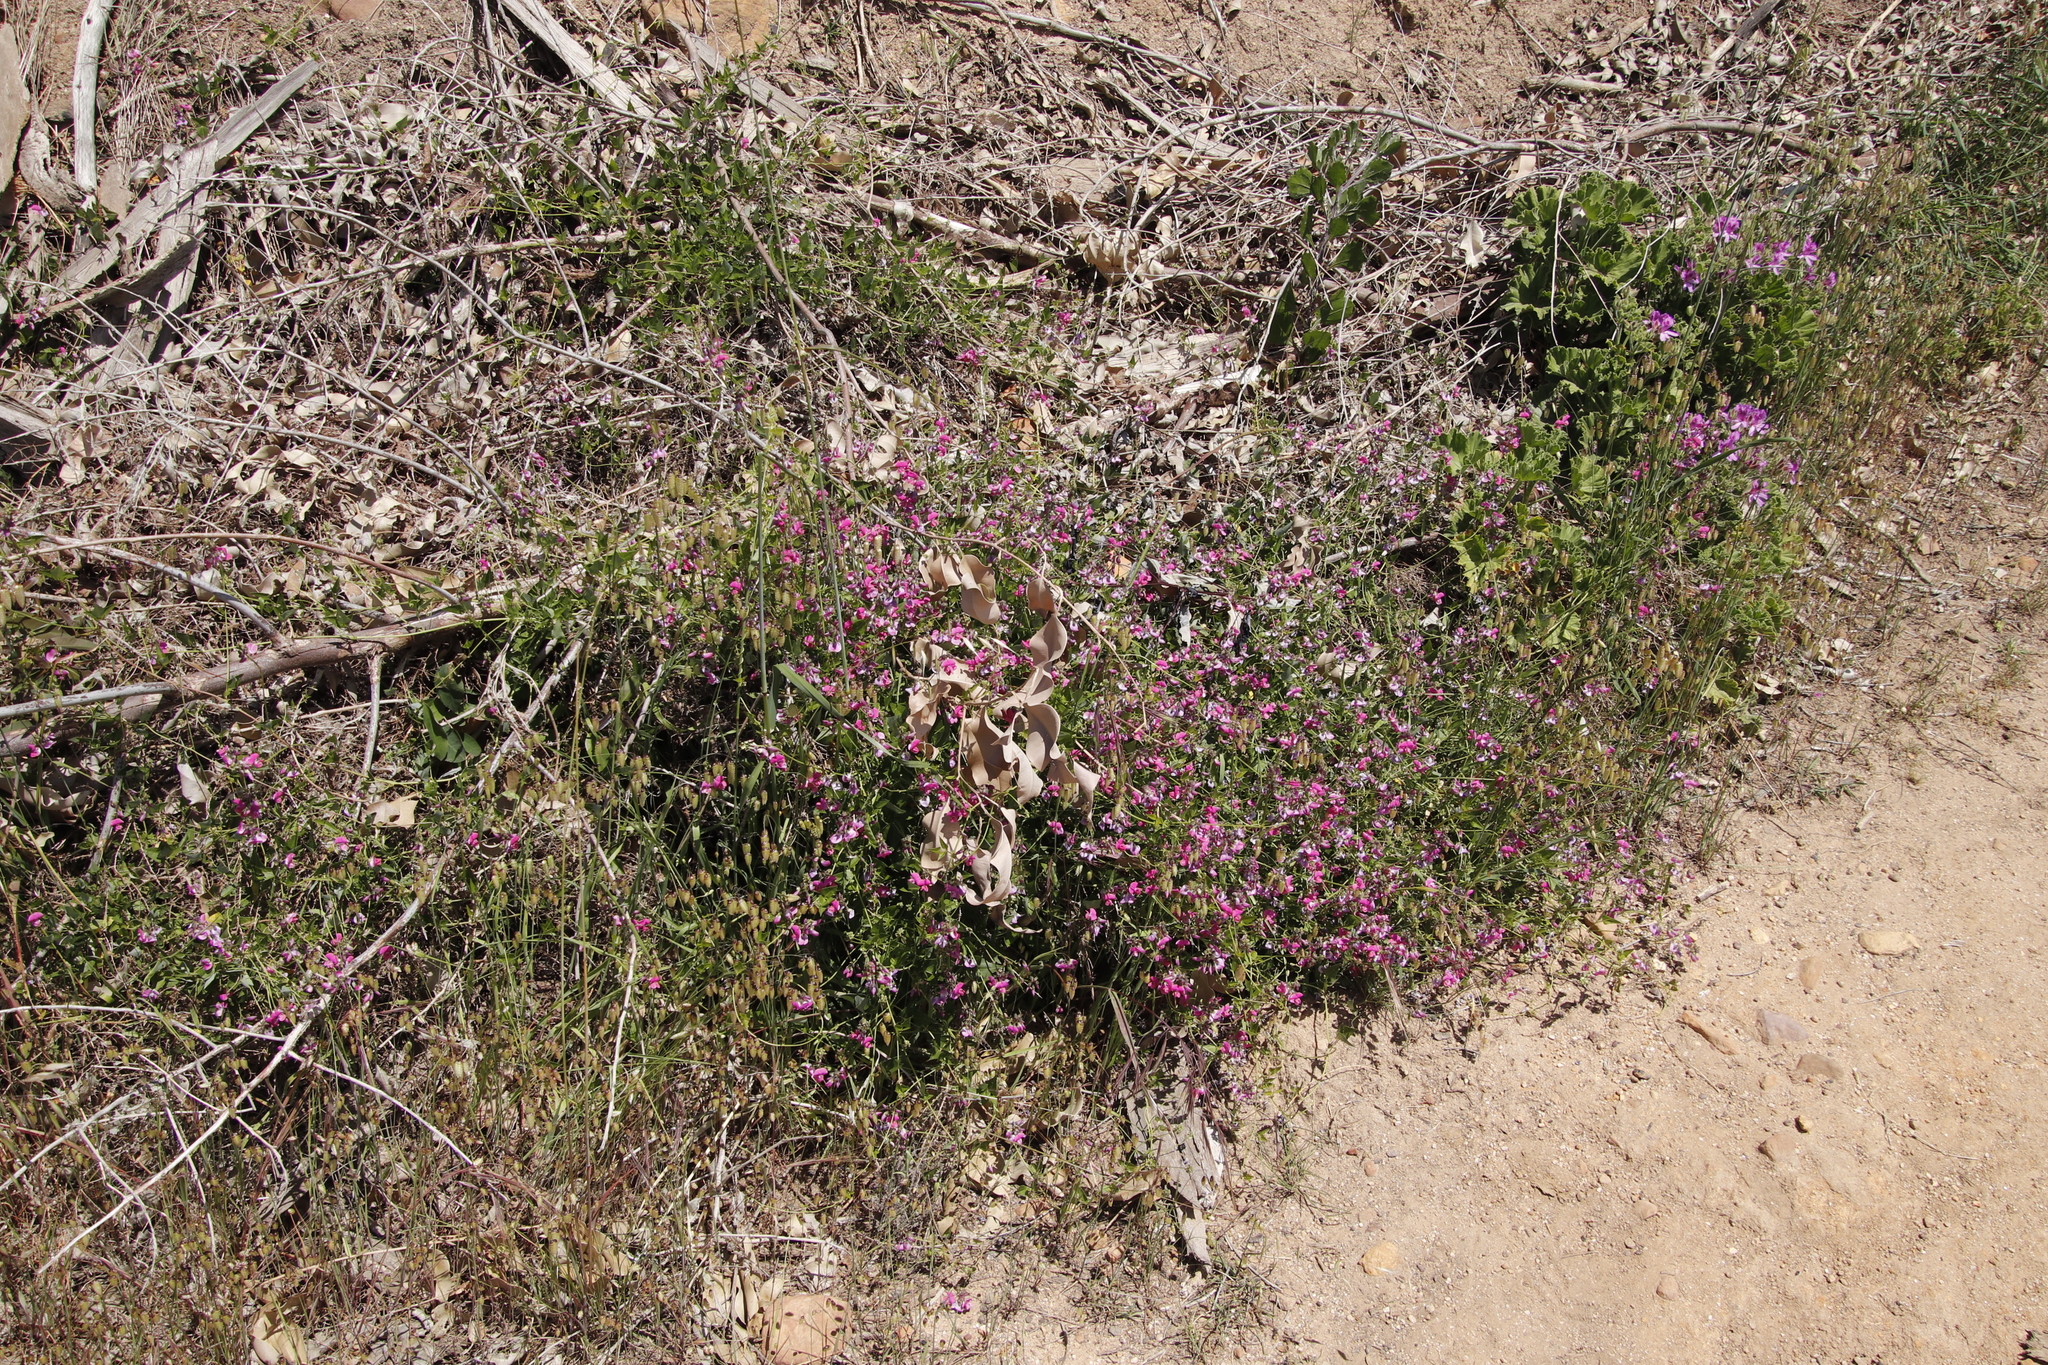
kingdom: Plantae
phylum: Tracheophyta
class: Magnoliopsida
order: Fabales
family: Fabaceae
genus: Dipogon
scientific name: Dipogon lignosus
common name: Okie bean
